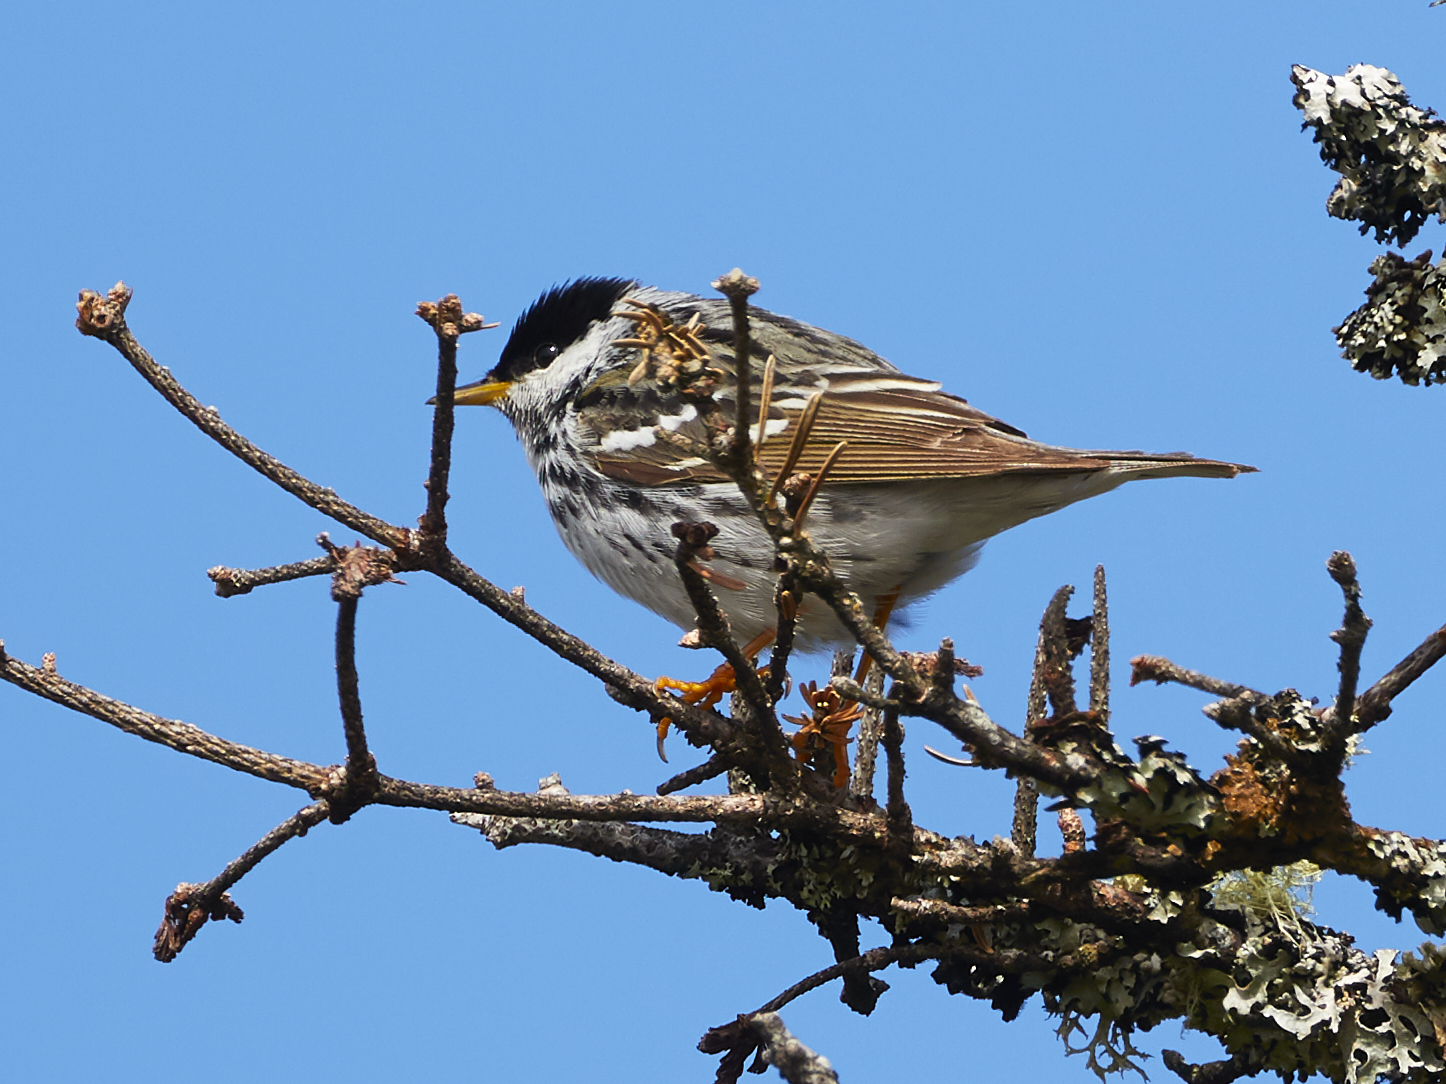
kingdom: Animalia
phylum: Chordata
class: Aves
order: Passeriformes
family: Parulidae
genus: Setophaga
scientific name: Setophaga striata
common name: Blackpoll warbler
